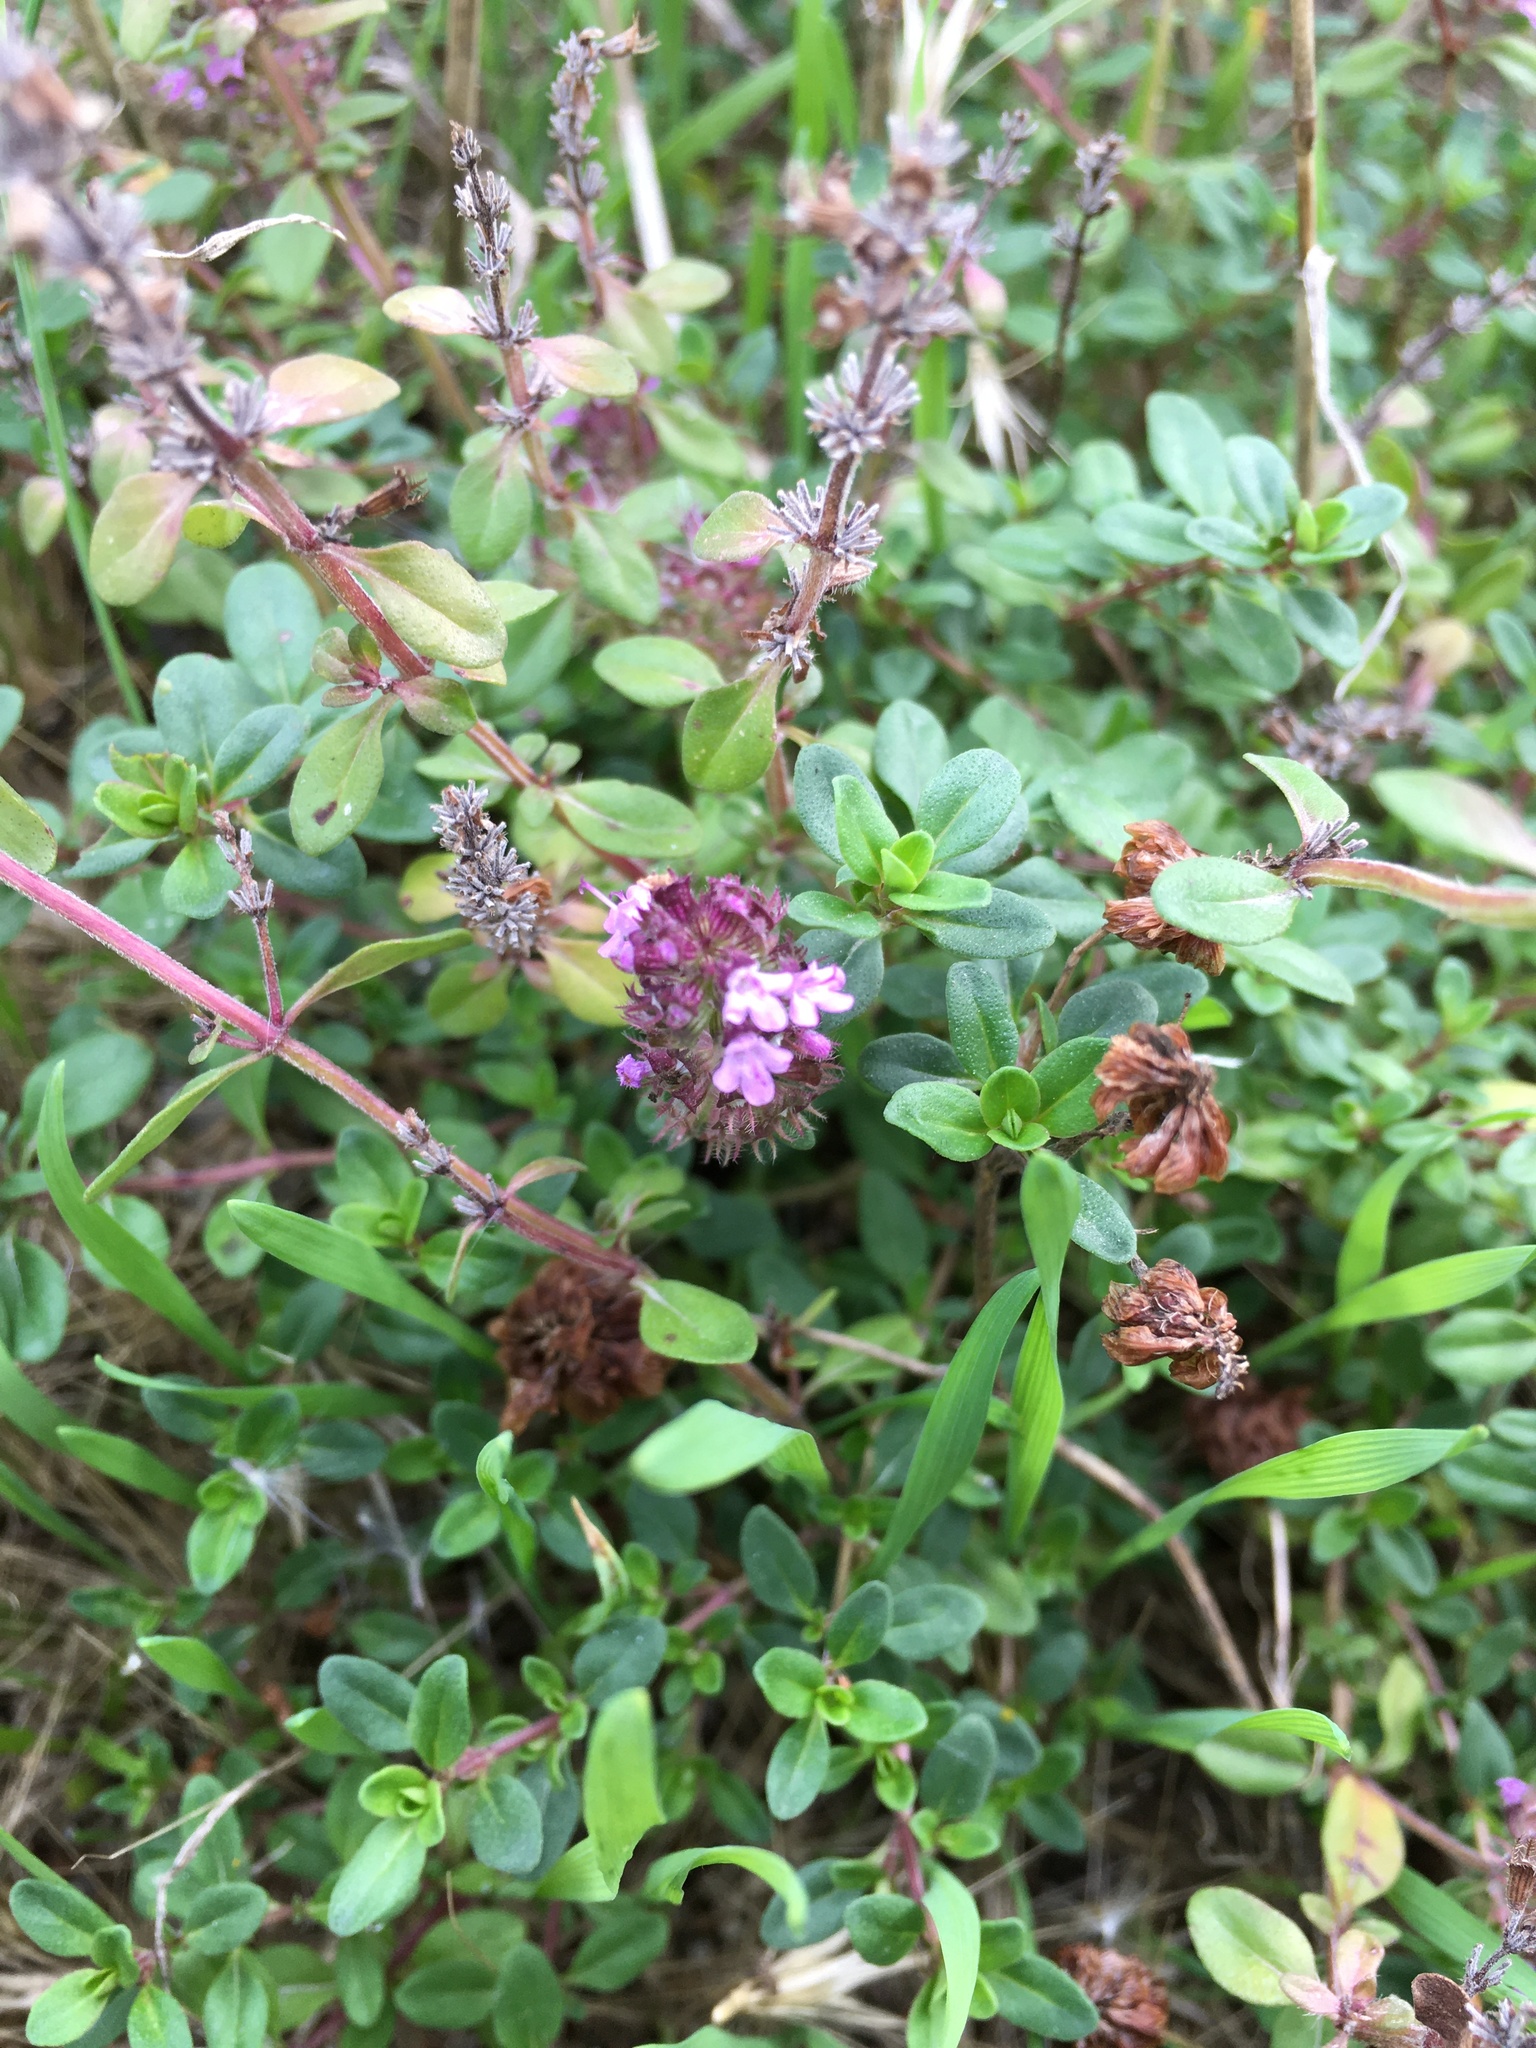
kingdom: Plantae
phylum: Tracheophyta
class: Magnoliopsida
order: Lamiales
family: Lamiaceae
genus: Thymus
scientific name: Thymus pulegioides
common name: Large thyme
